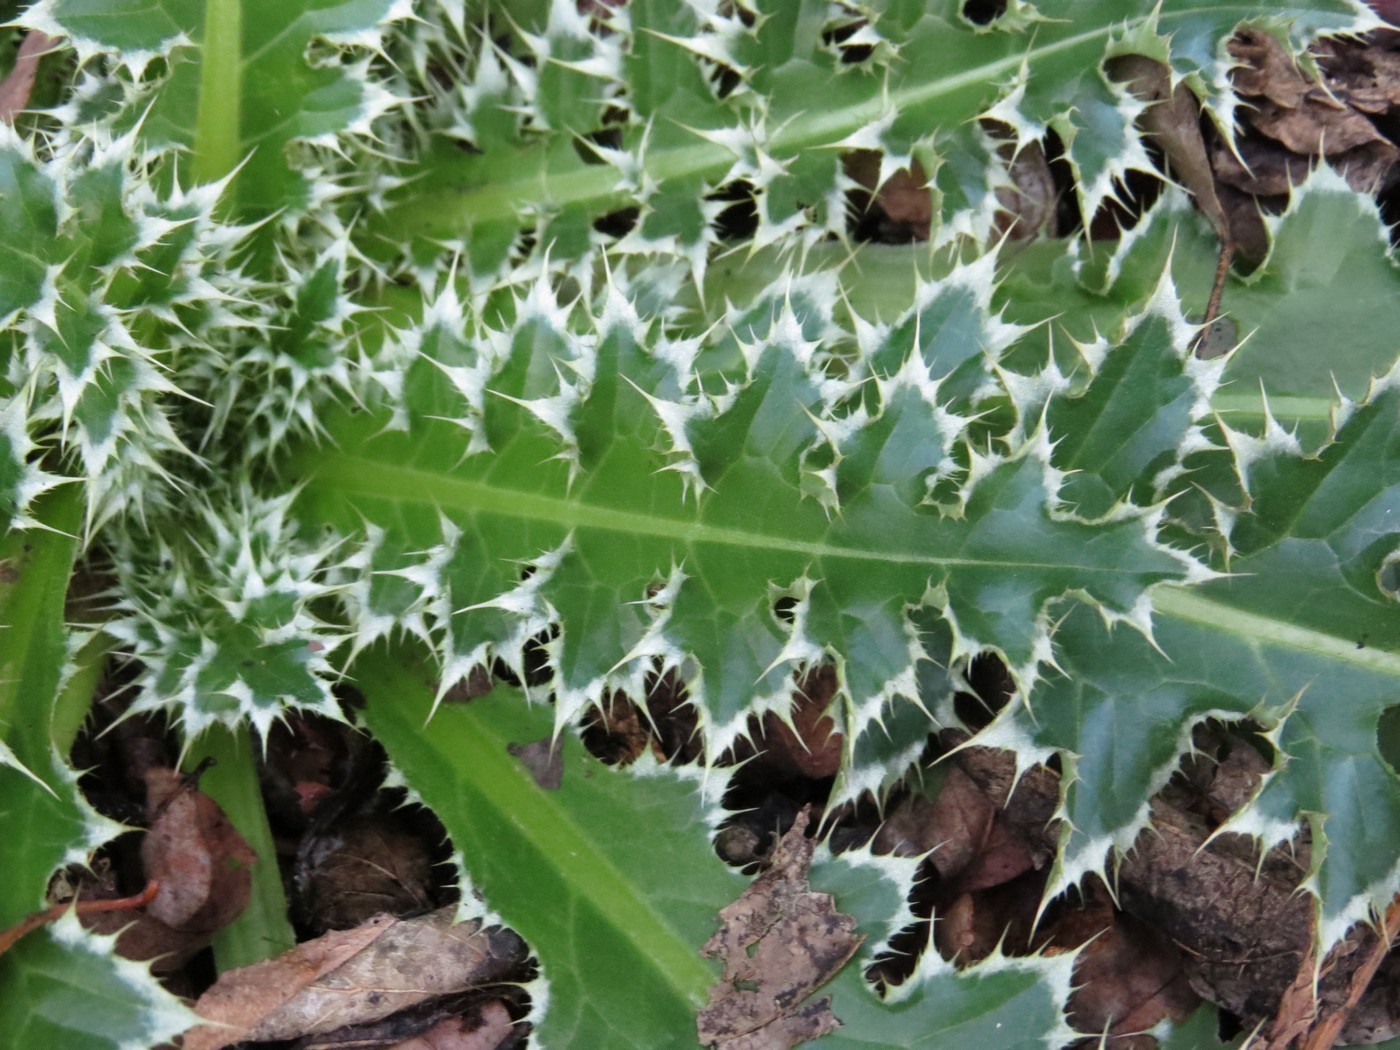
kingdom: Plantae
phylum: Tracheophyta
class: Magnoliopsida
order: Asterales
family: Asteraceae
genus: Carduus
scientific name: Carduus nutans
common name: Musk thistle
